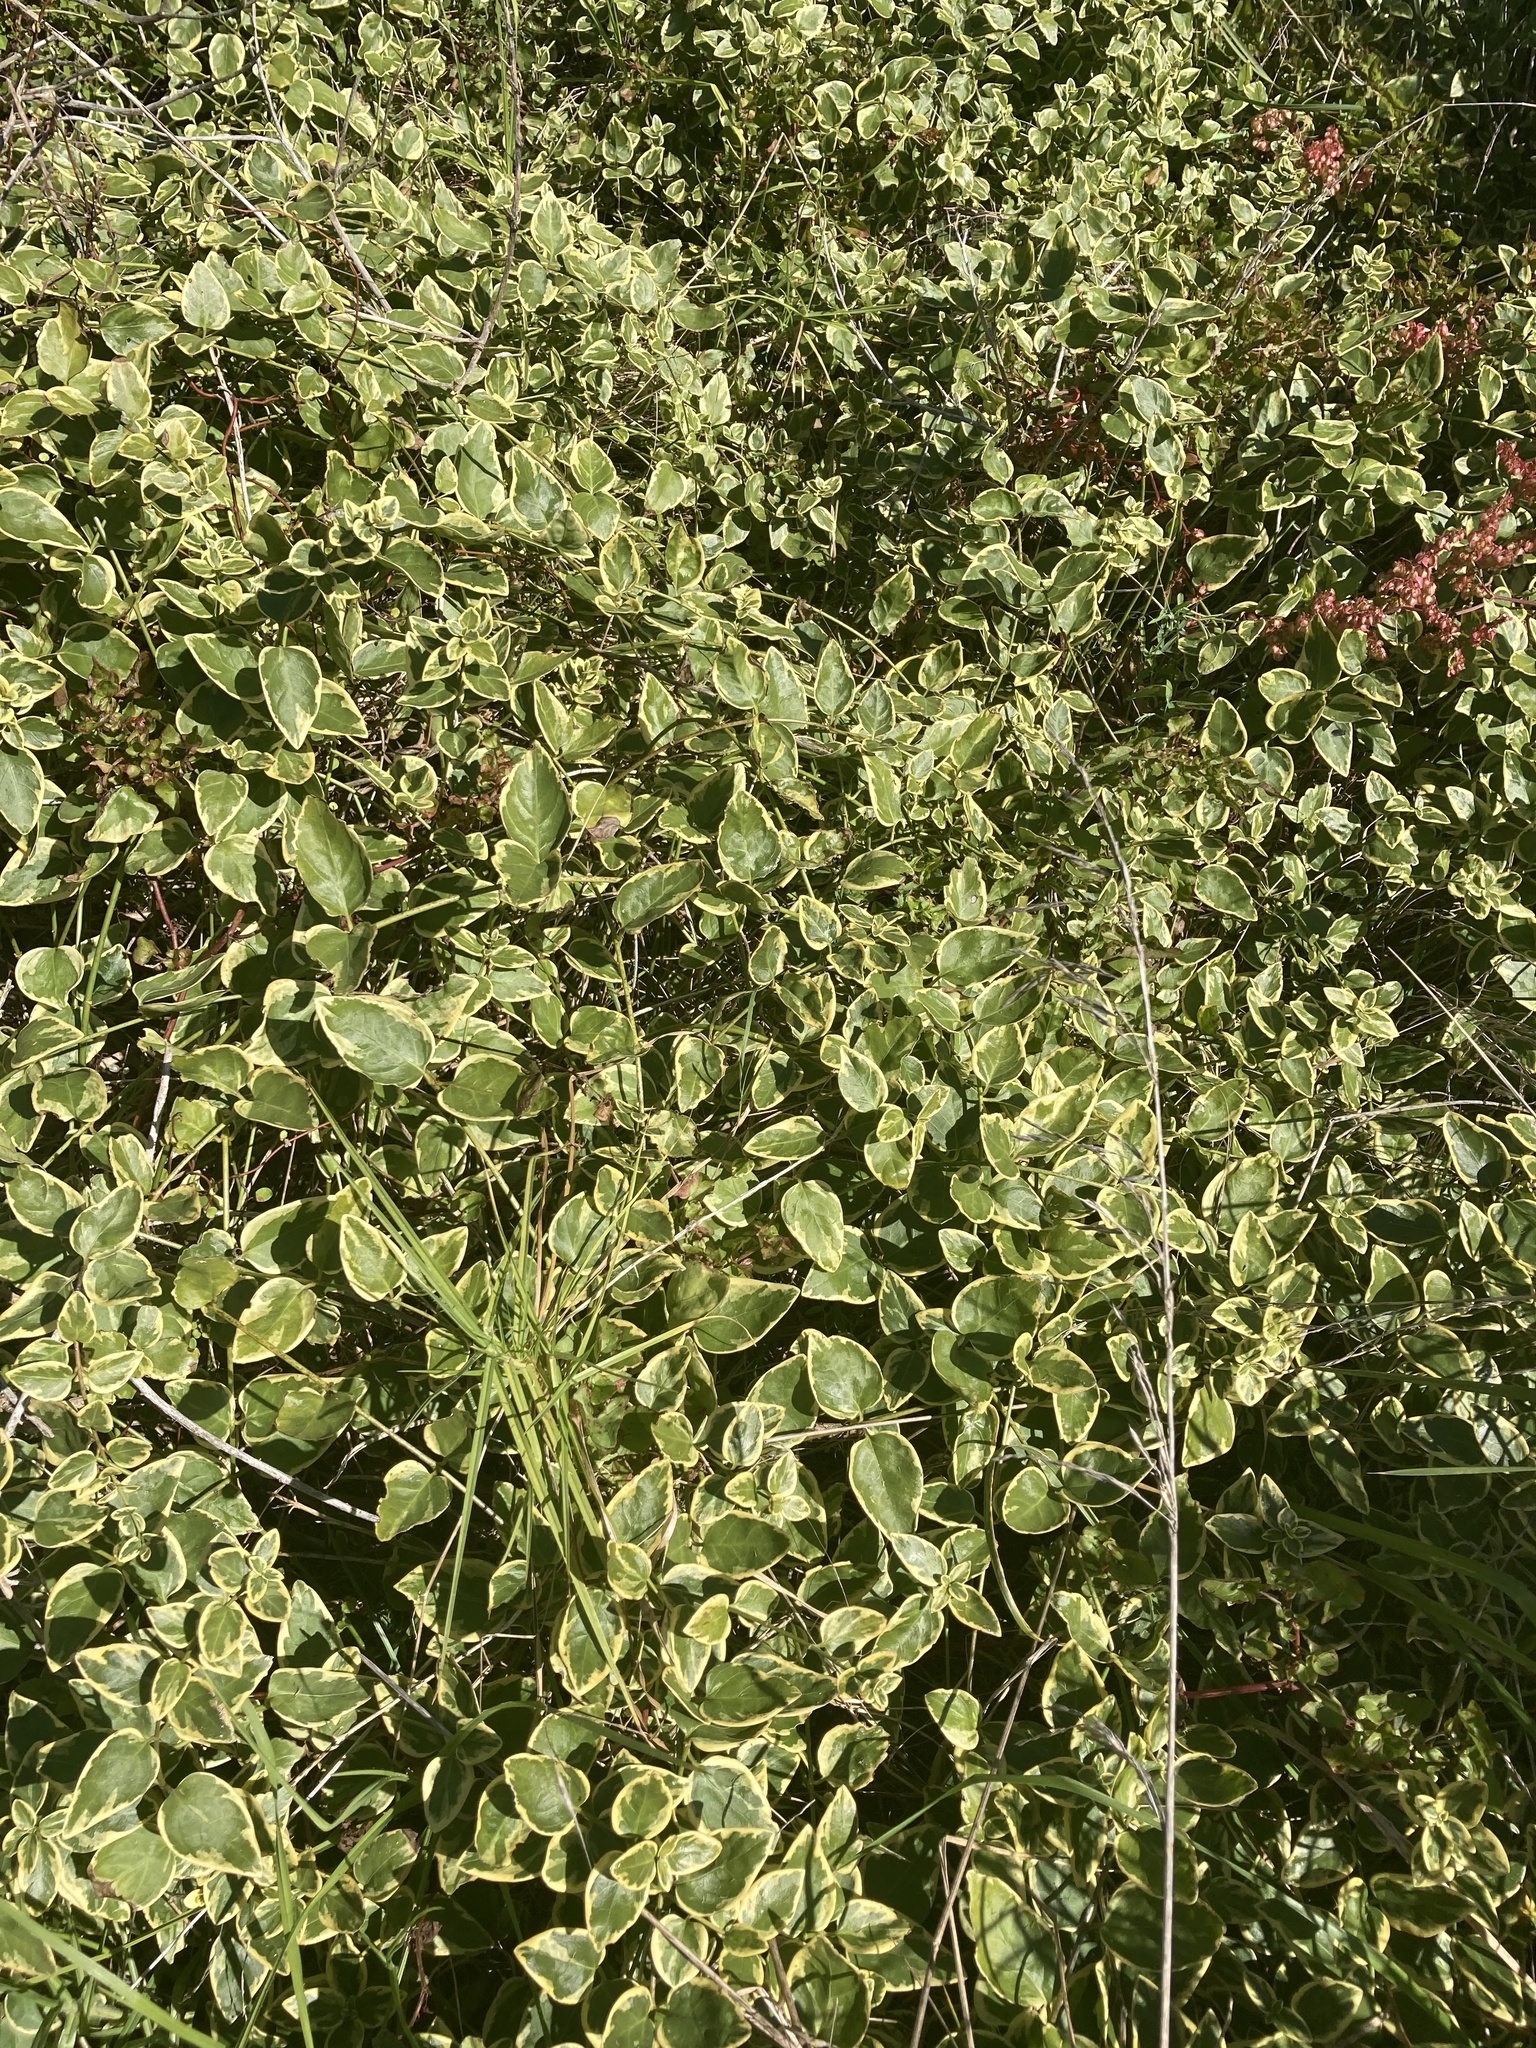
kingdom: Plantae
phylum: Tracheophyta
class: Magnoliopsida
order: Gentianales
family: Apocynaceae
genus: Vinca
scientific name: Vinca major
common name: Greater periwinkle
